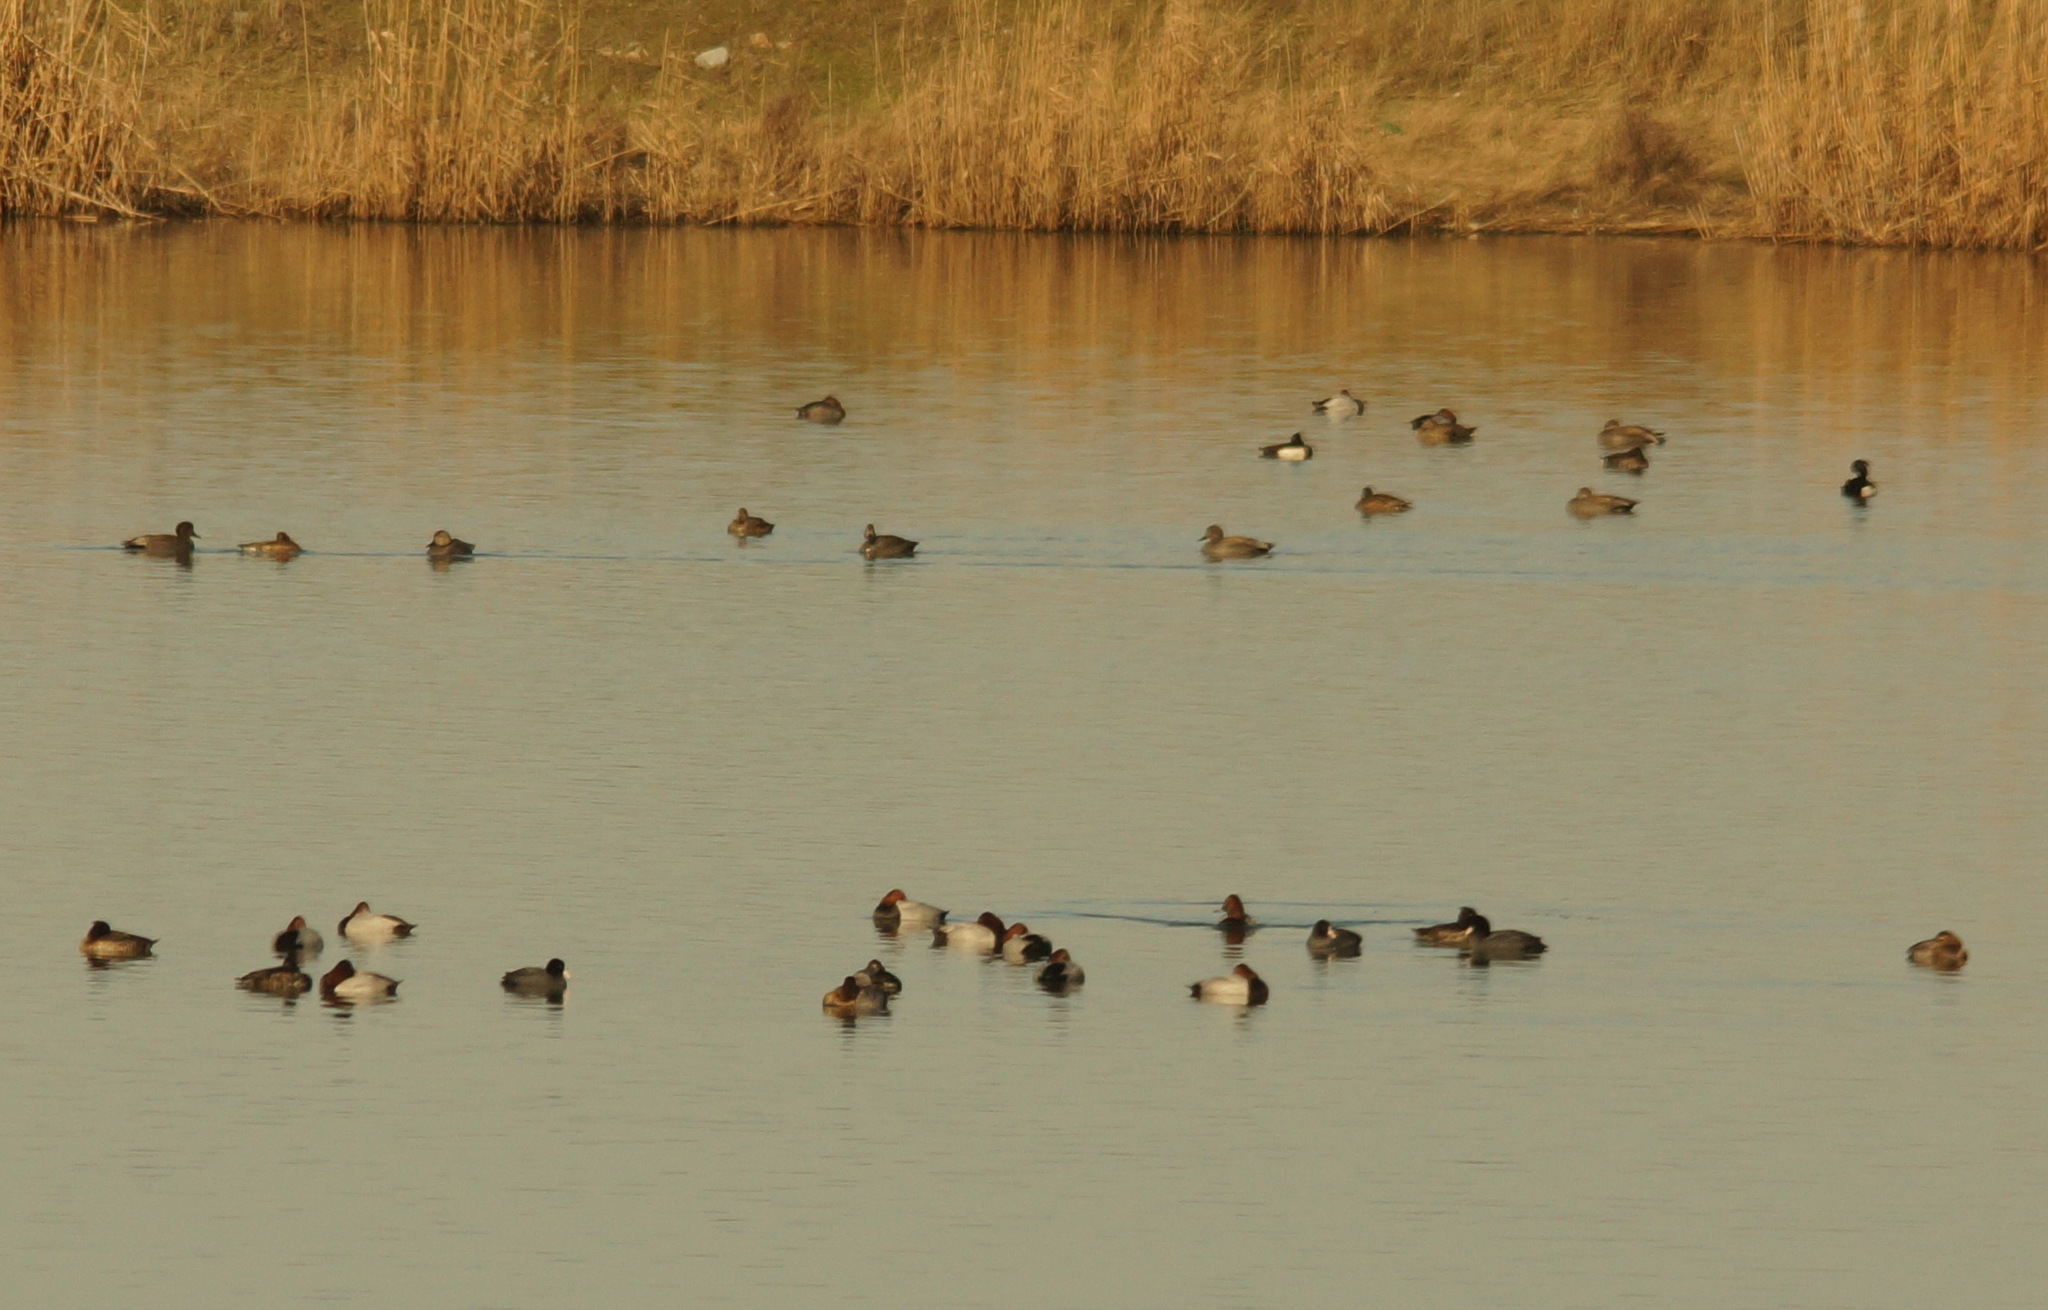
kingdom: Animalia
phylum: Chordata
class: Aves
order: Anseriformes
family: Anatidae
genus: Aythya
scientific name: Aythya ferina
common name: Common pochard
